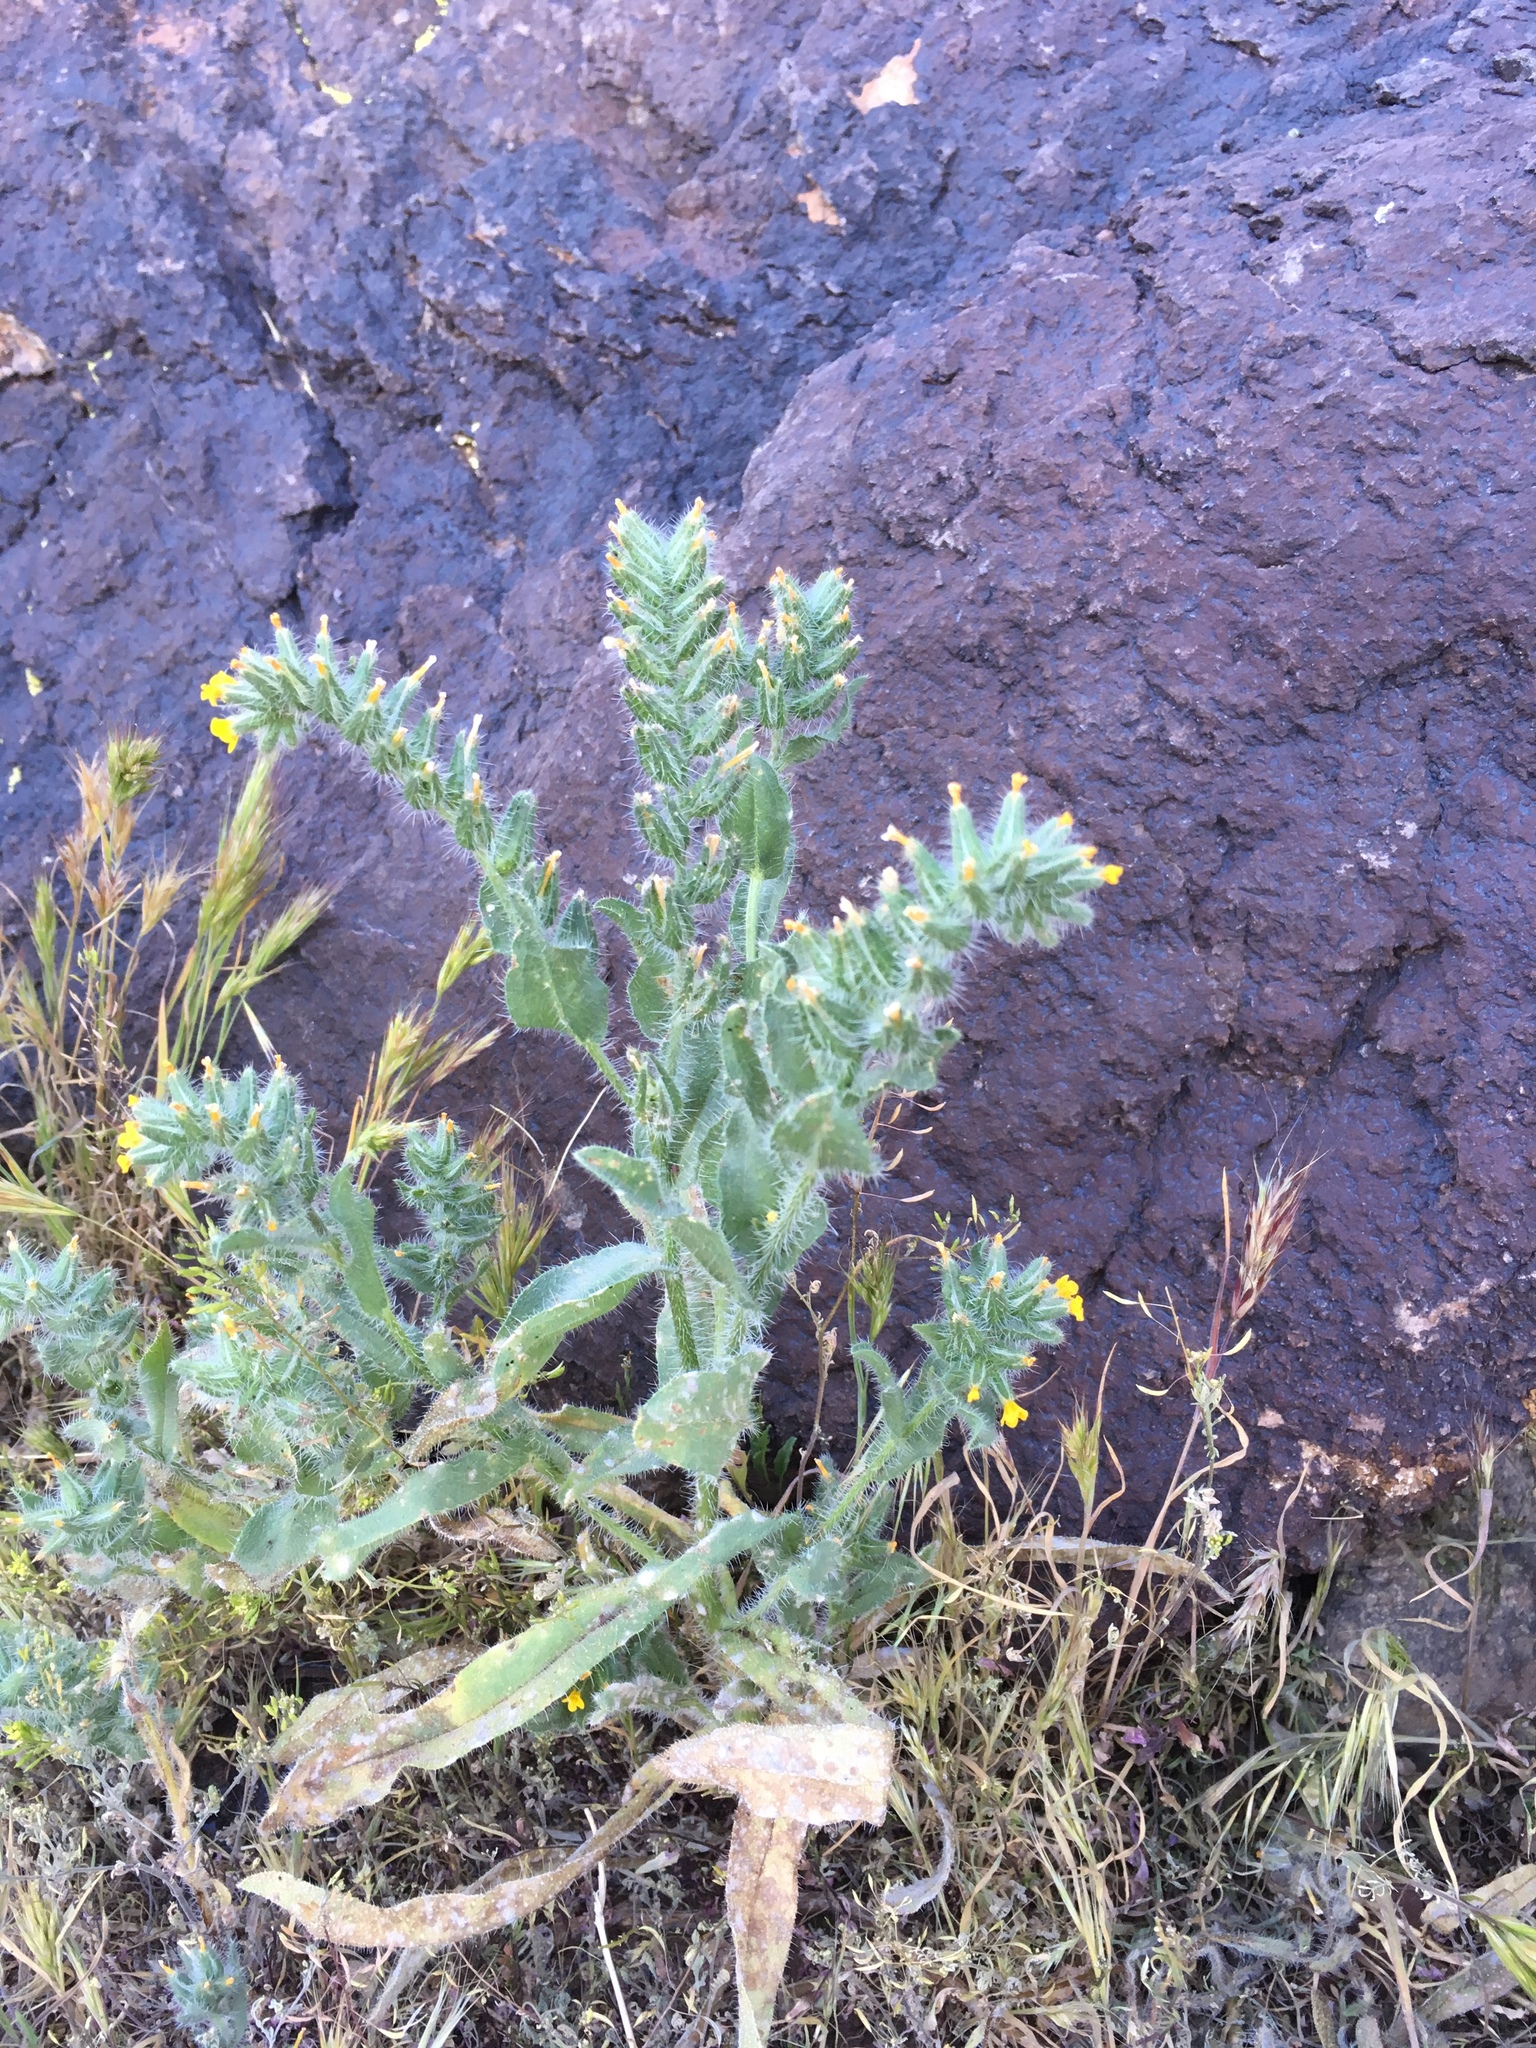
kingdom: Plantae
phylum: Tracheophyta
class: Magnoliopsida
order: Boraginales
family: Boraginaceae
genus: Amsinckia
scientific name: Amsinckia tessellata
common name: Tessellate fiddleneck
